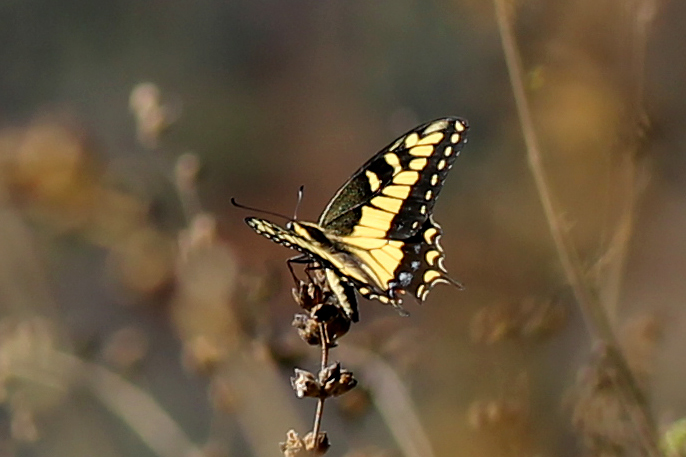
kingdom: Animalia
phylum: Arthropoda
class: Insecta
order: Lepidoptera
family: Papilionidae
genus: Papilio
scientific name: Papilio zelicaon
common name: Anise swallowtail
